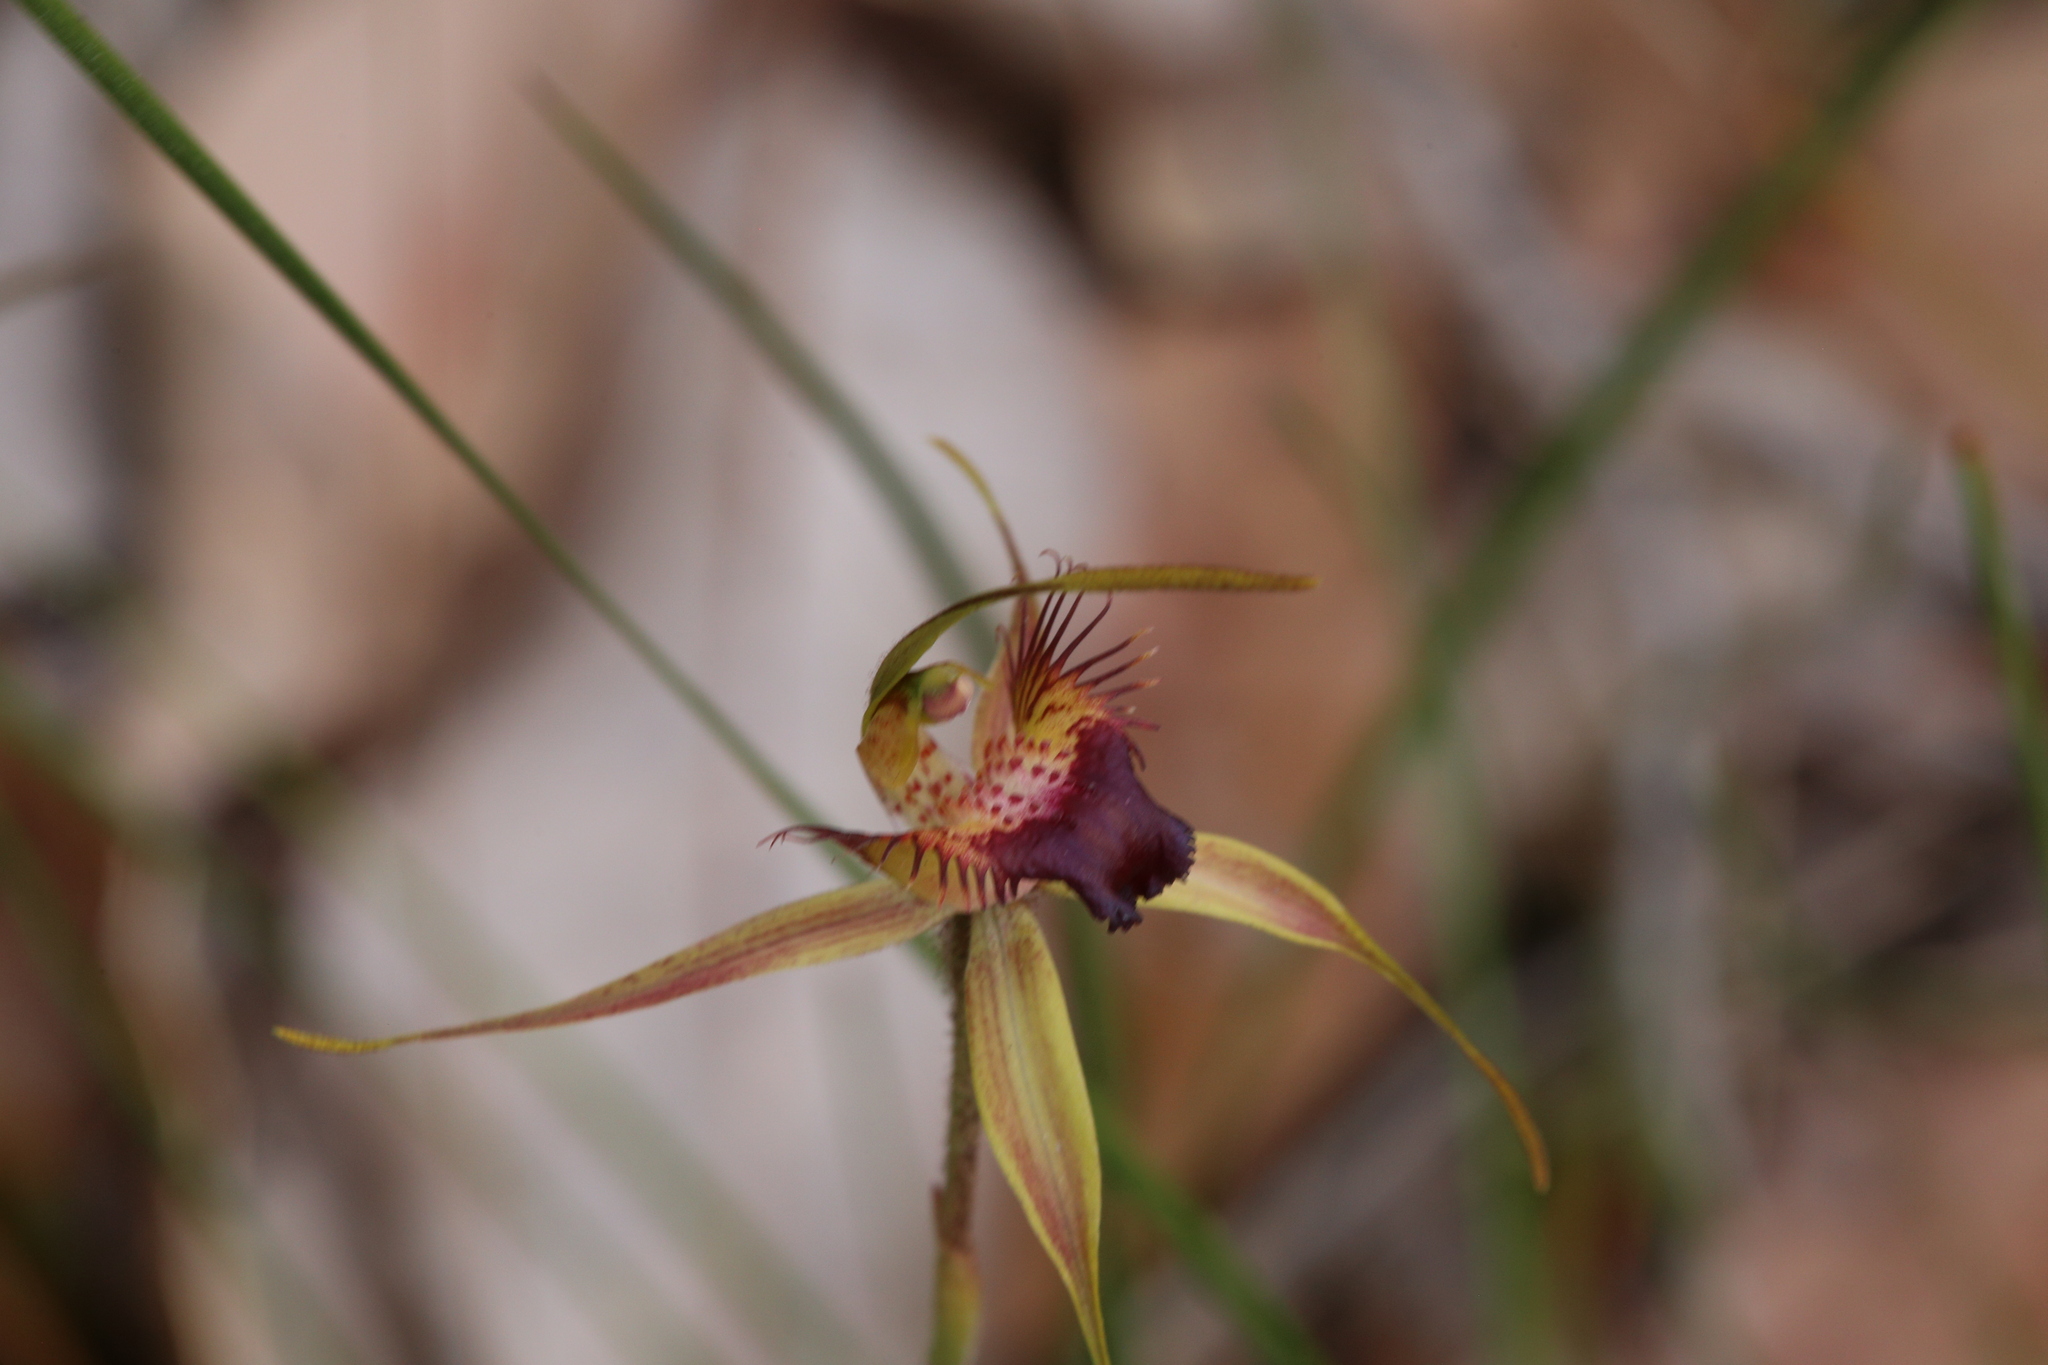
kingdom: Plantae
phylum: Tracheophyta
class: Liliopsida
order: Asparagales
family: Orchidaceae
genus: Caladenia
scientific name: Caladenia brownii
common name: Kari spider orchid
